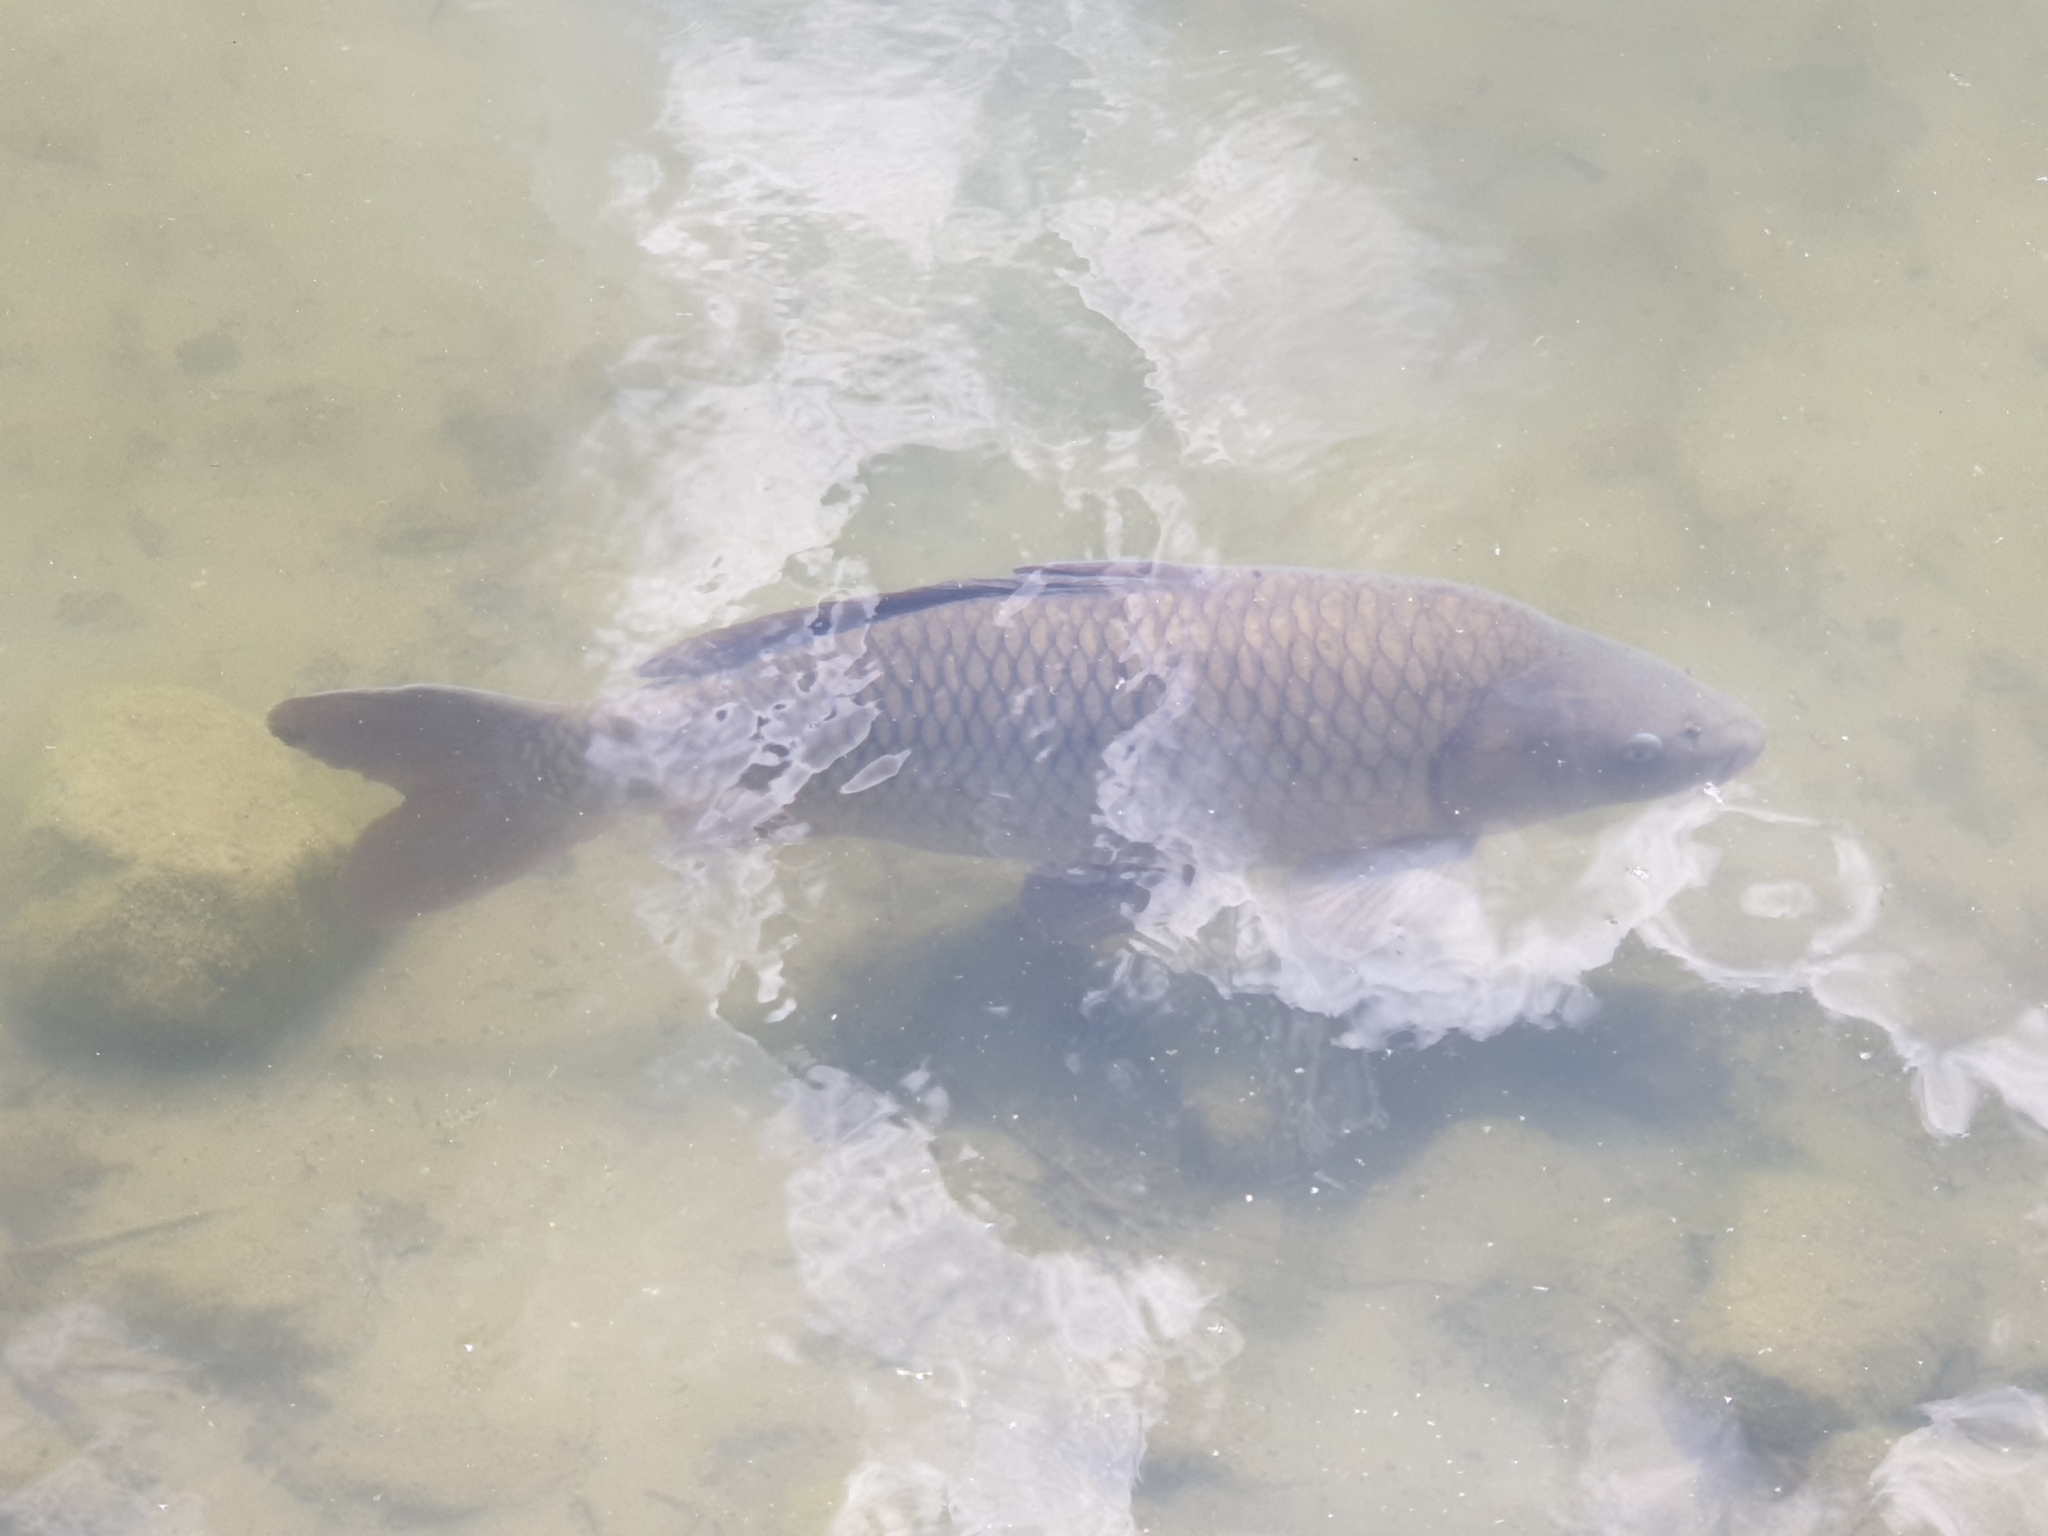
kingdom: Animalia
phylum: Chordata
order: Cypriniformes
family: Cyprinidae
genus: Cyprinus
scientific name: Cyprinus carpio
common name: Common carp
